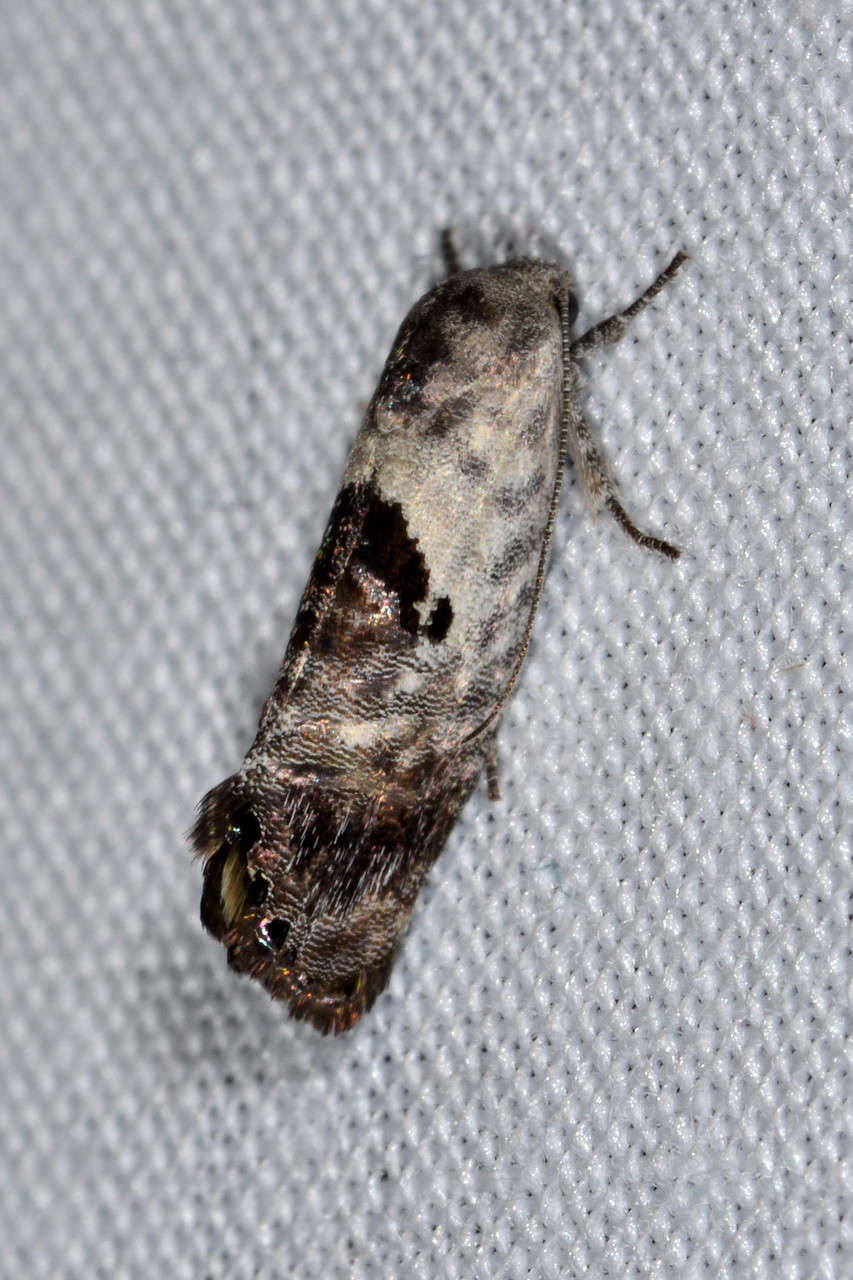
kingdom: Animalia
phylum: Arthropoda
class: Insecta
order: Lepidoptera
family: Depressariidae
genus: Eupselia
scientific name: Eupselia carpocapsella
